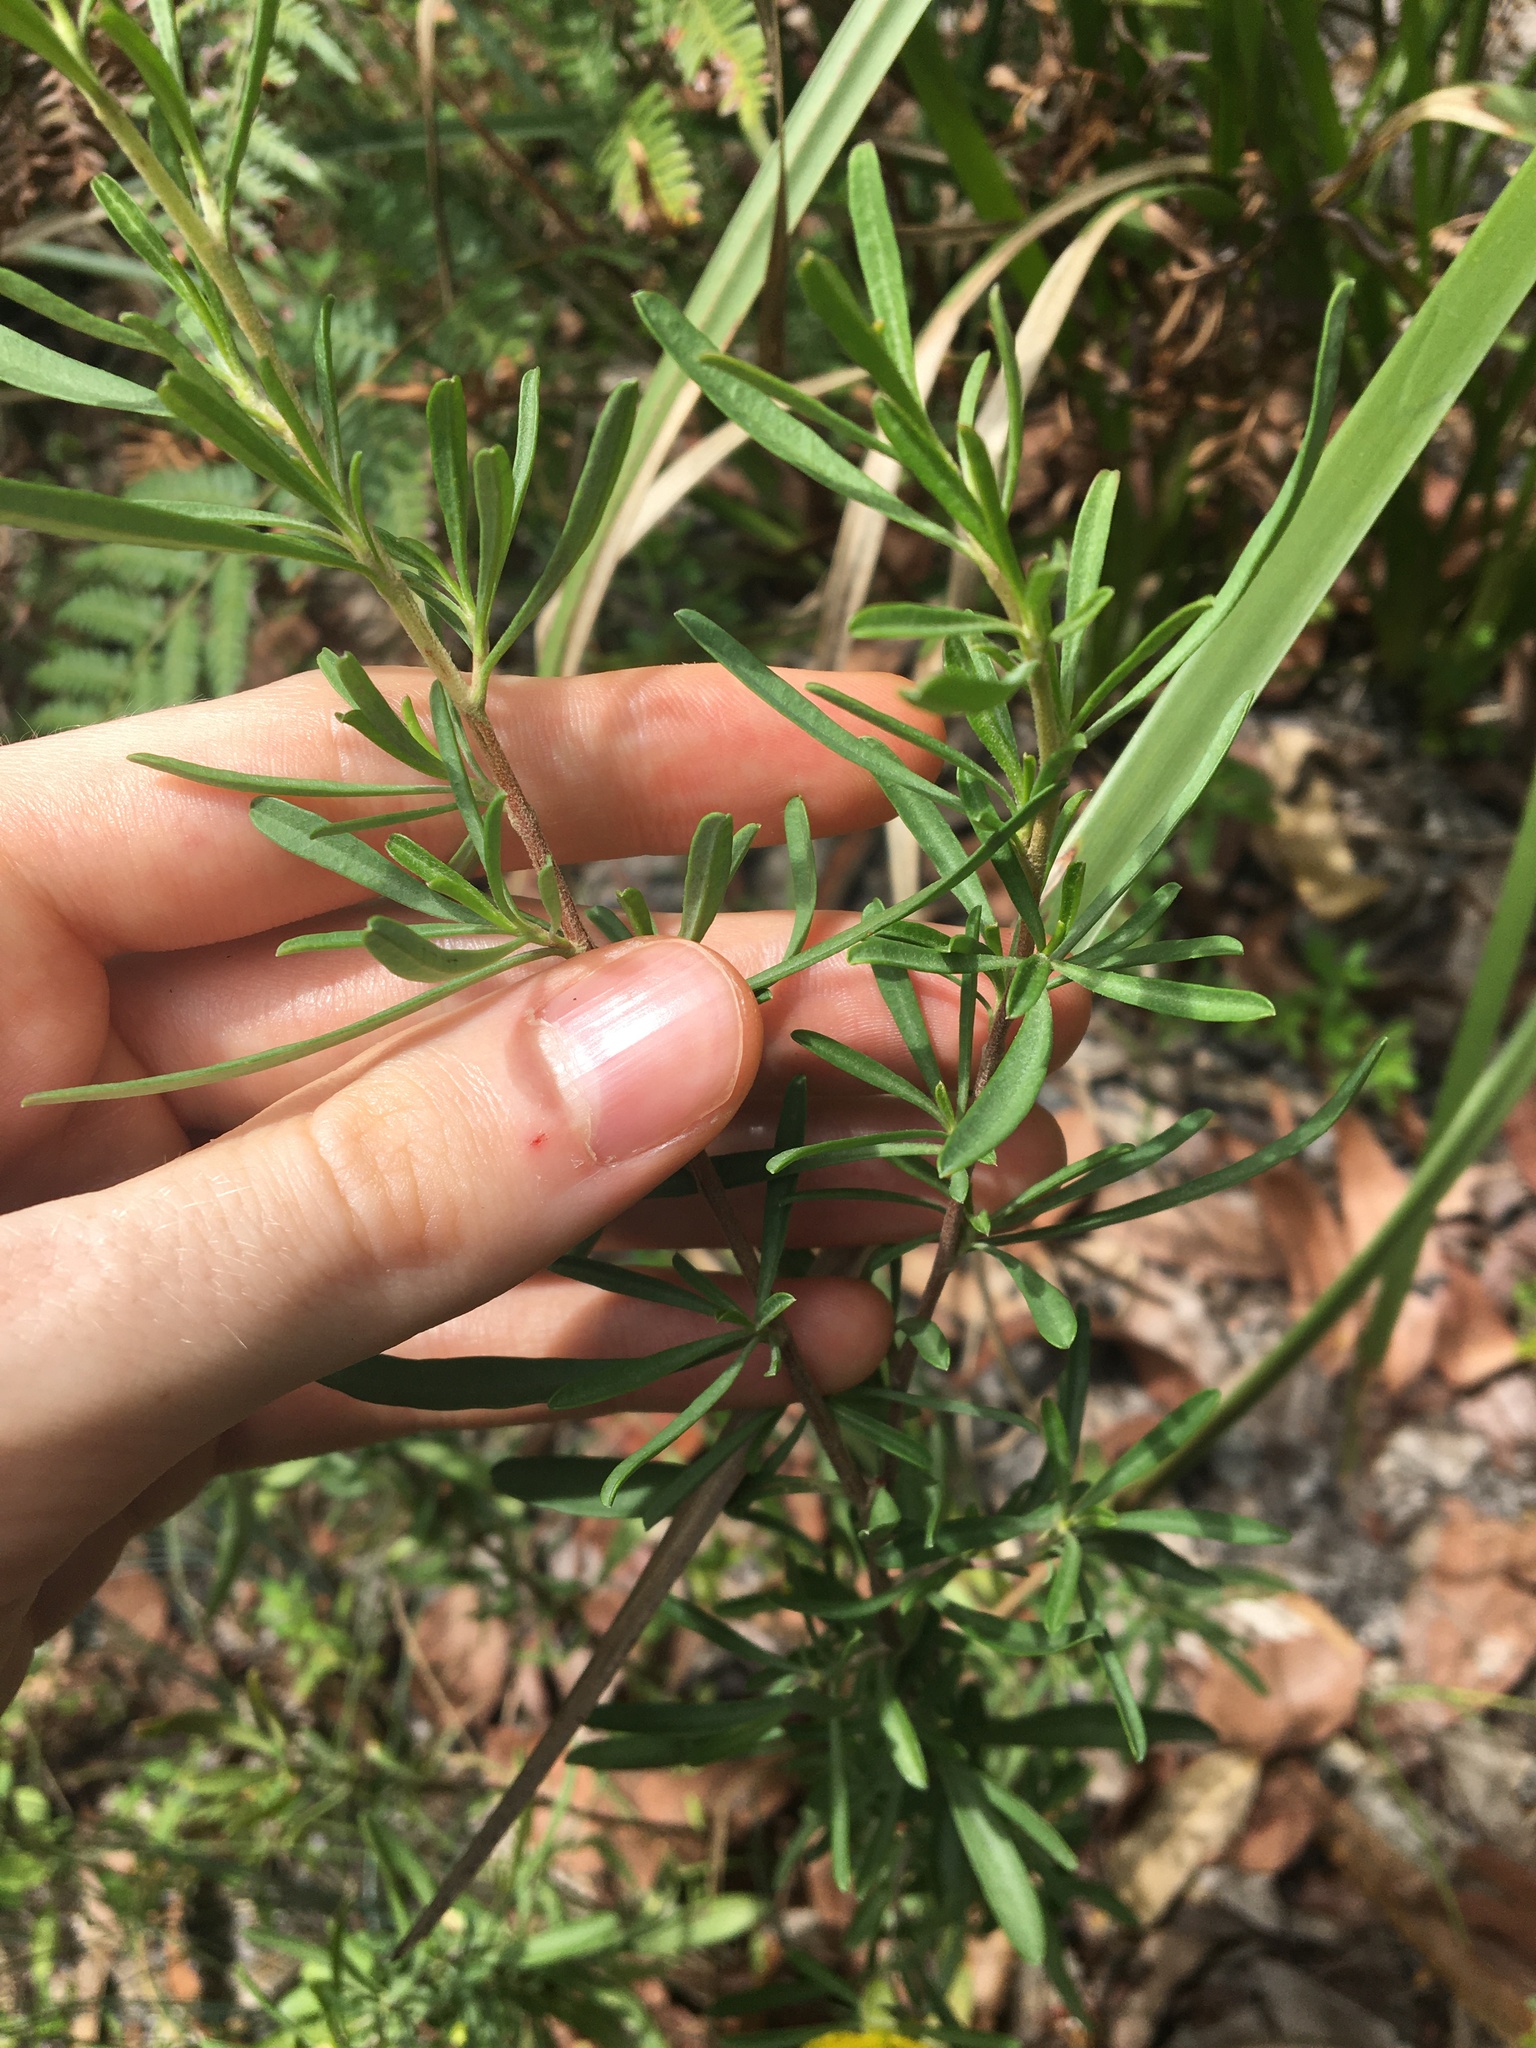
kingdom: Plantae
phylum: Tracheophyta
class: Magnoliopsida
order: Dilleniales
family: Dilleniaceae
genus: Hibbertia
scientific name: Hibbertia linearis
